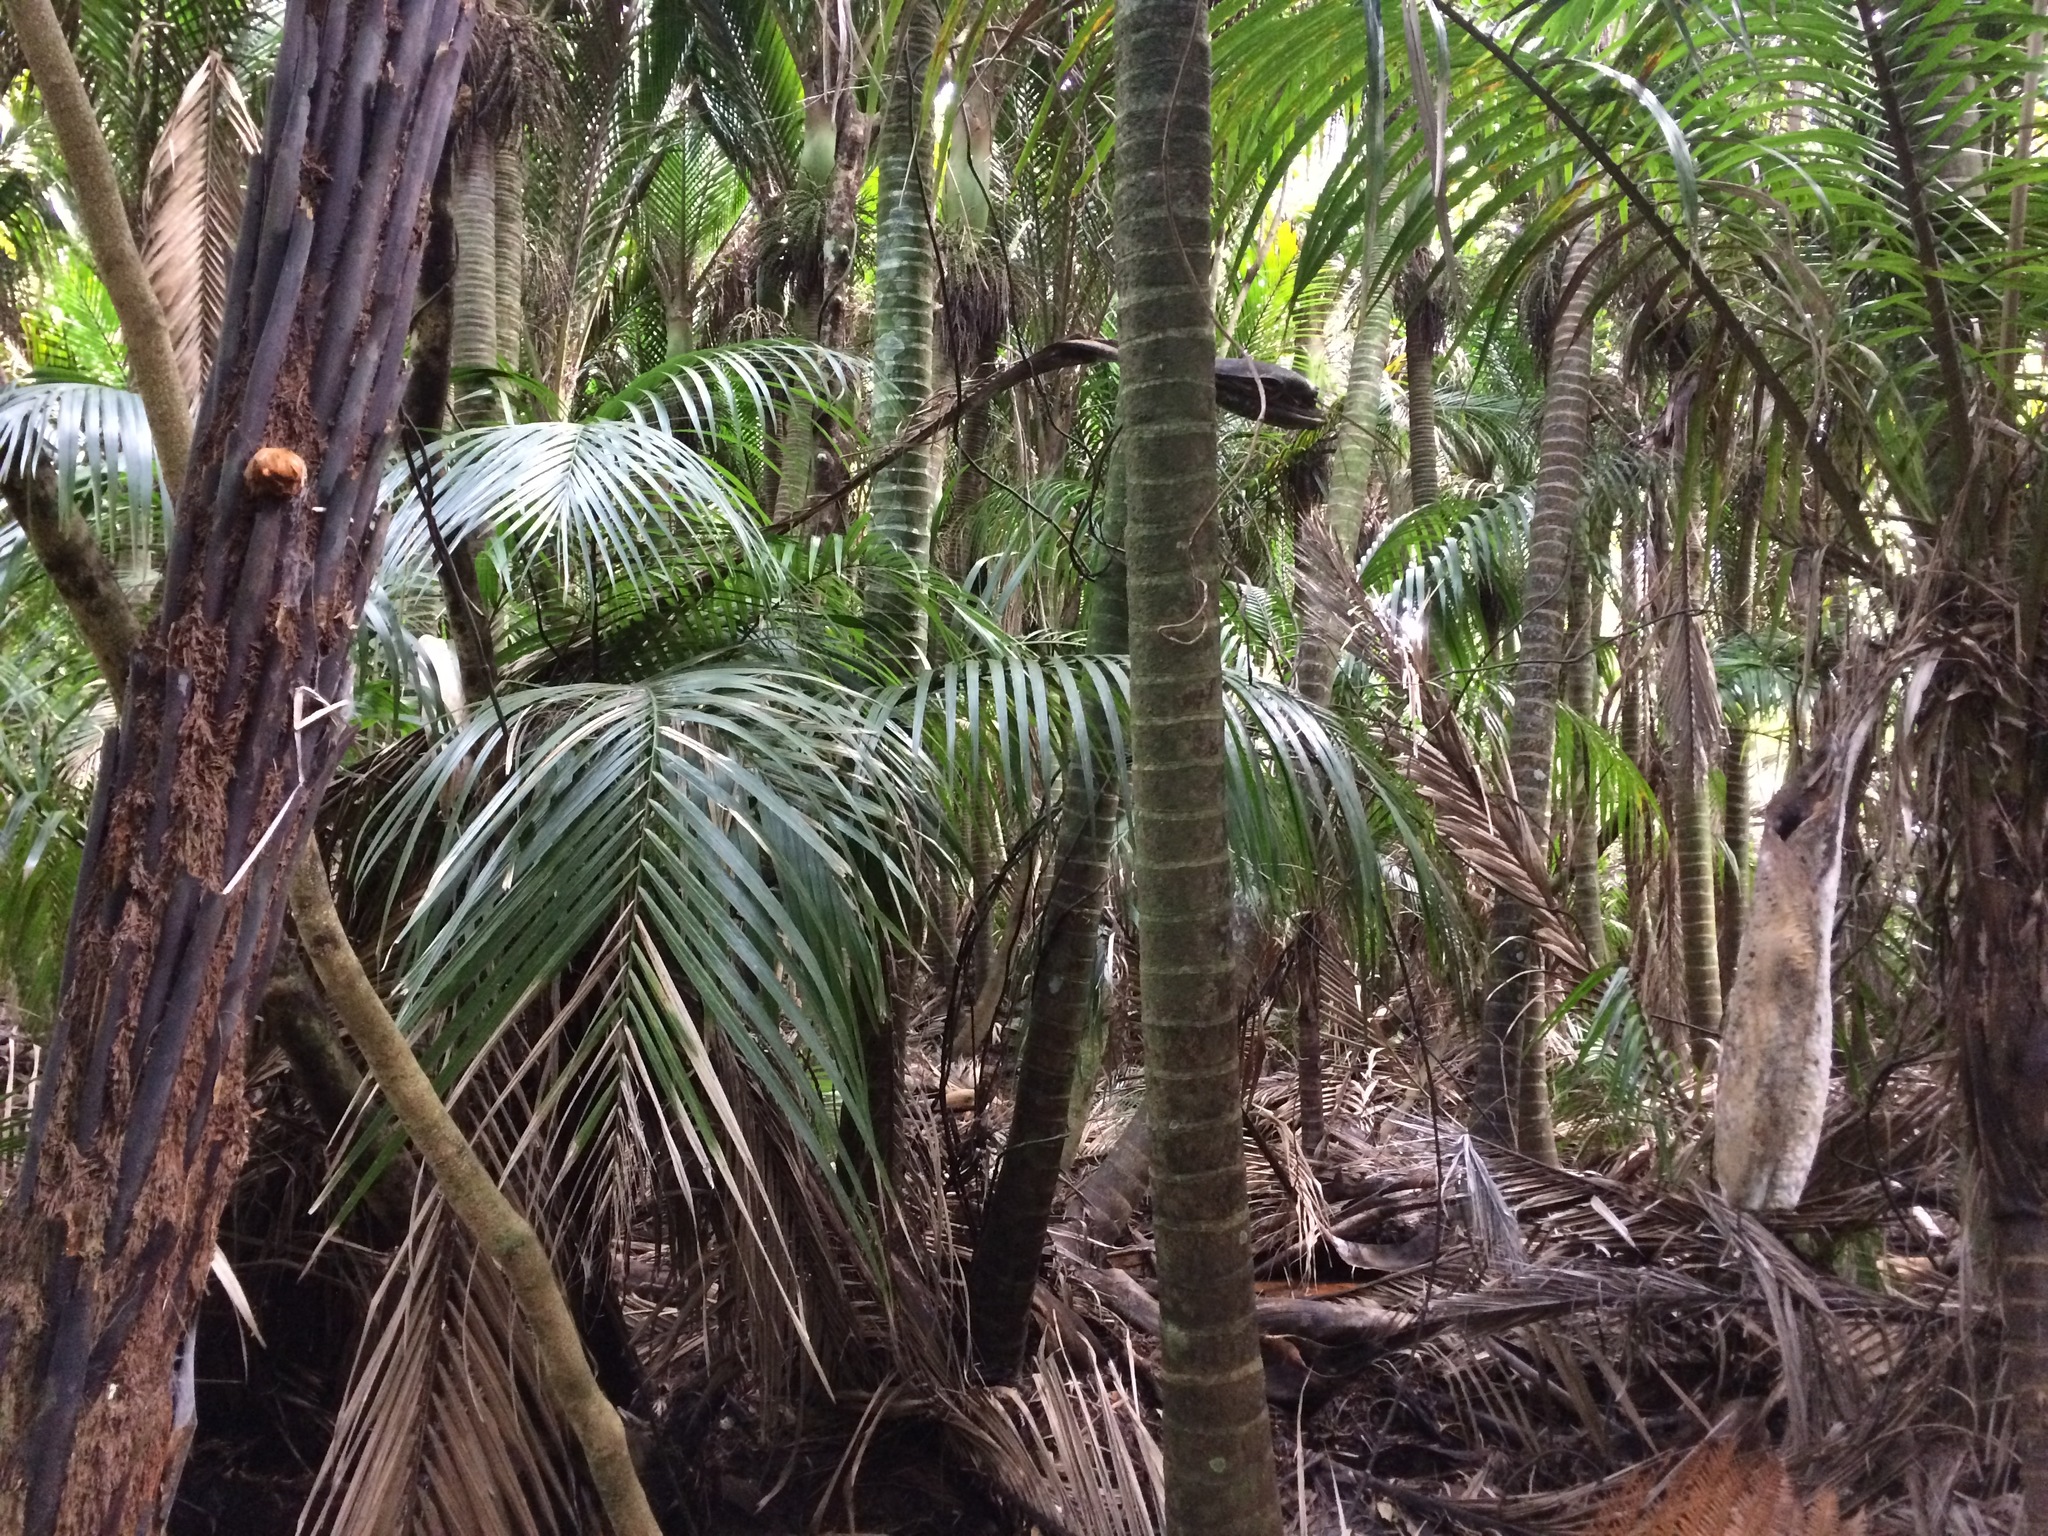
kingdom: Plantae
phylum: Tracheophyta
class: Liliopsida
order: Arecales
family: Arecaceae
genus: Rhopalostylis
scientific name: Rhopalostylis sapida
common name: Feather-duster palm
